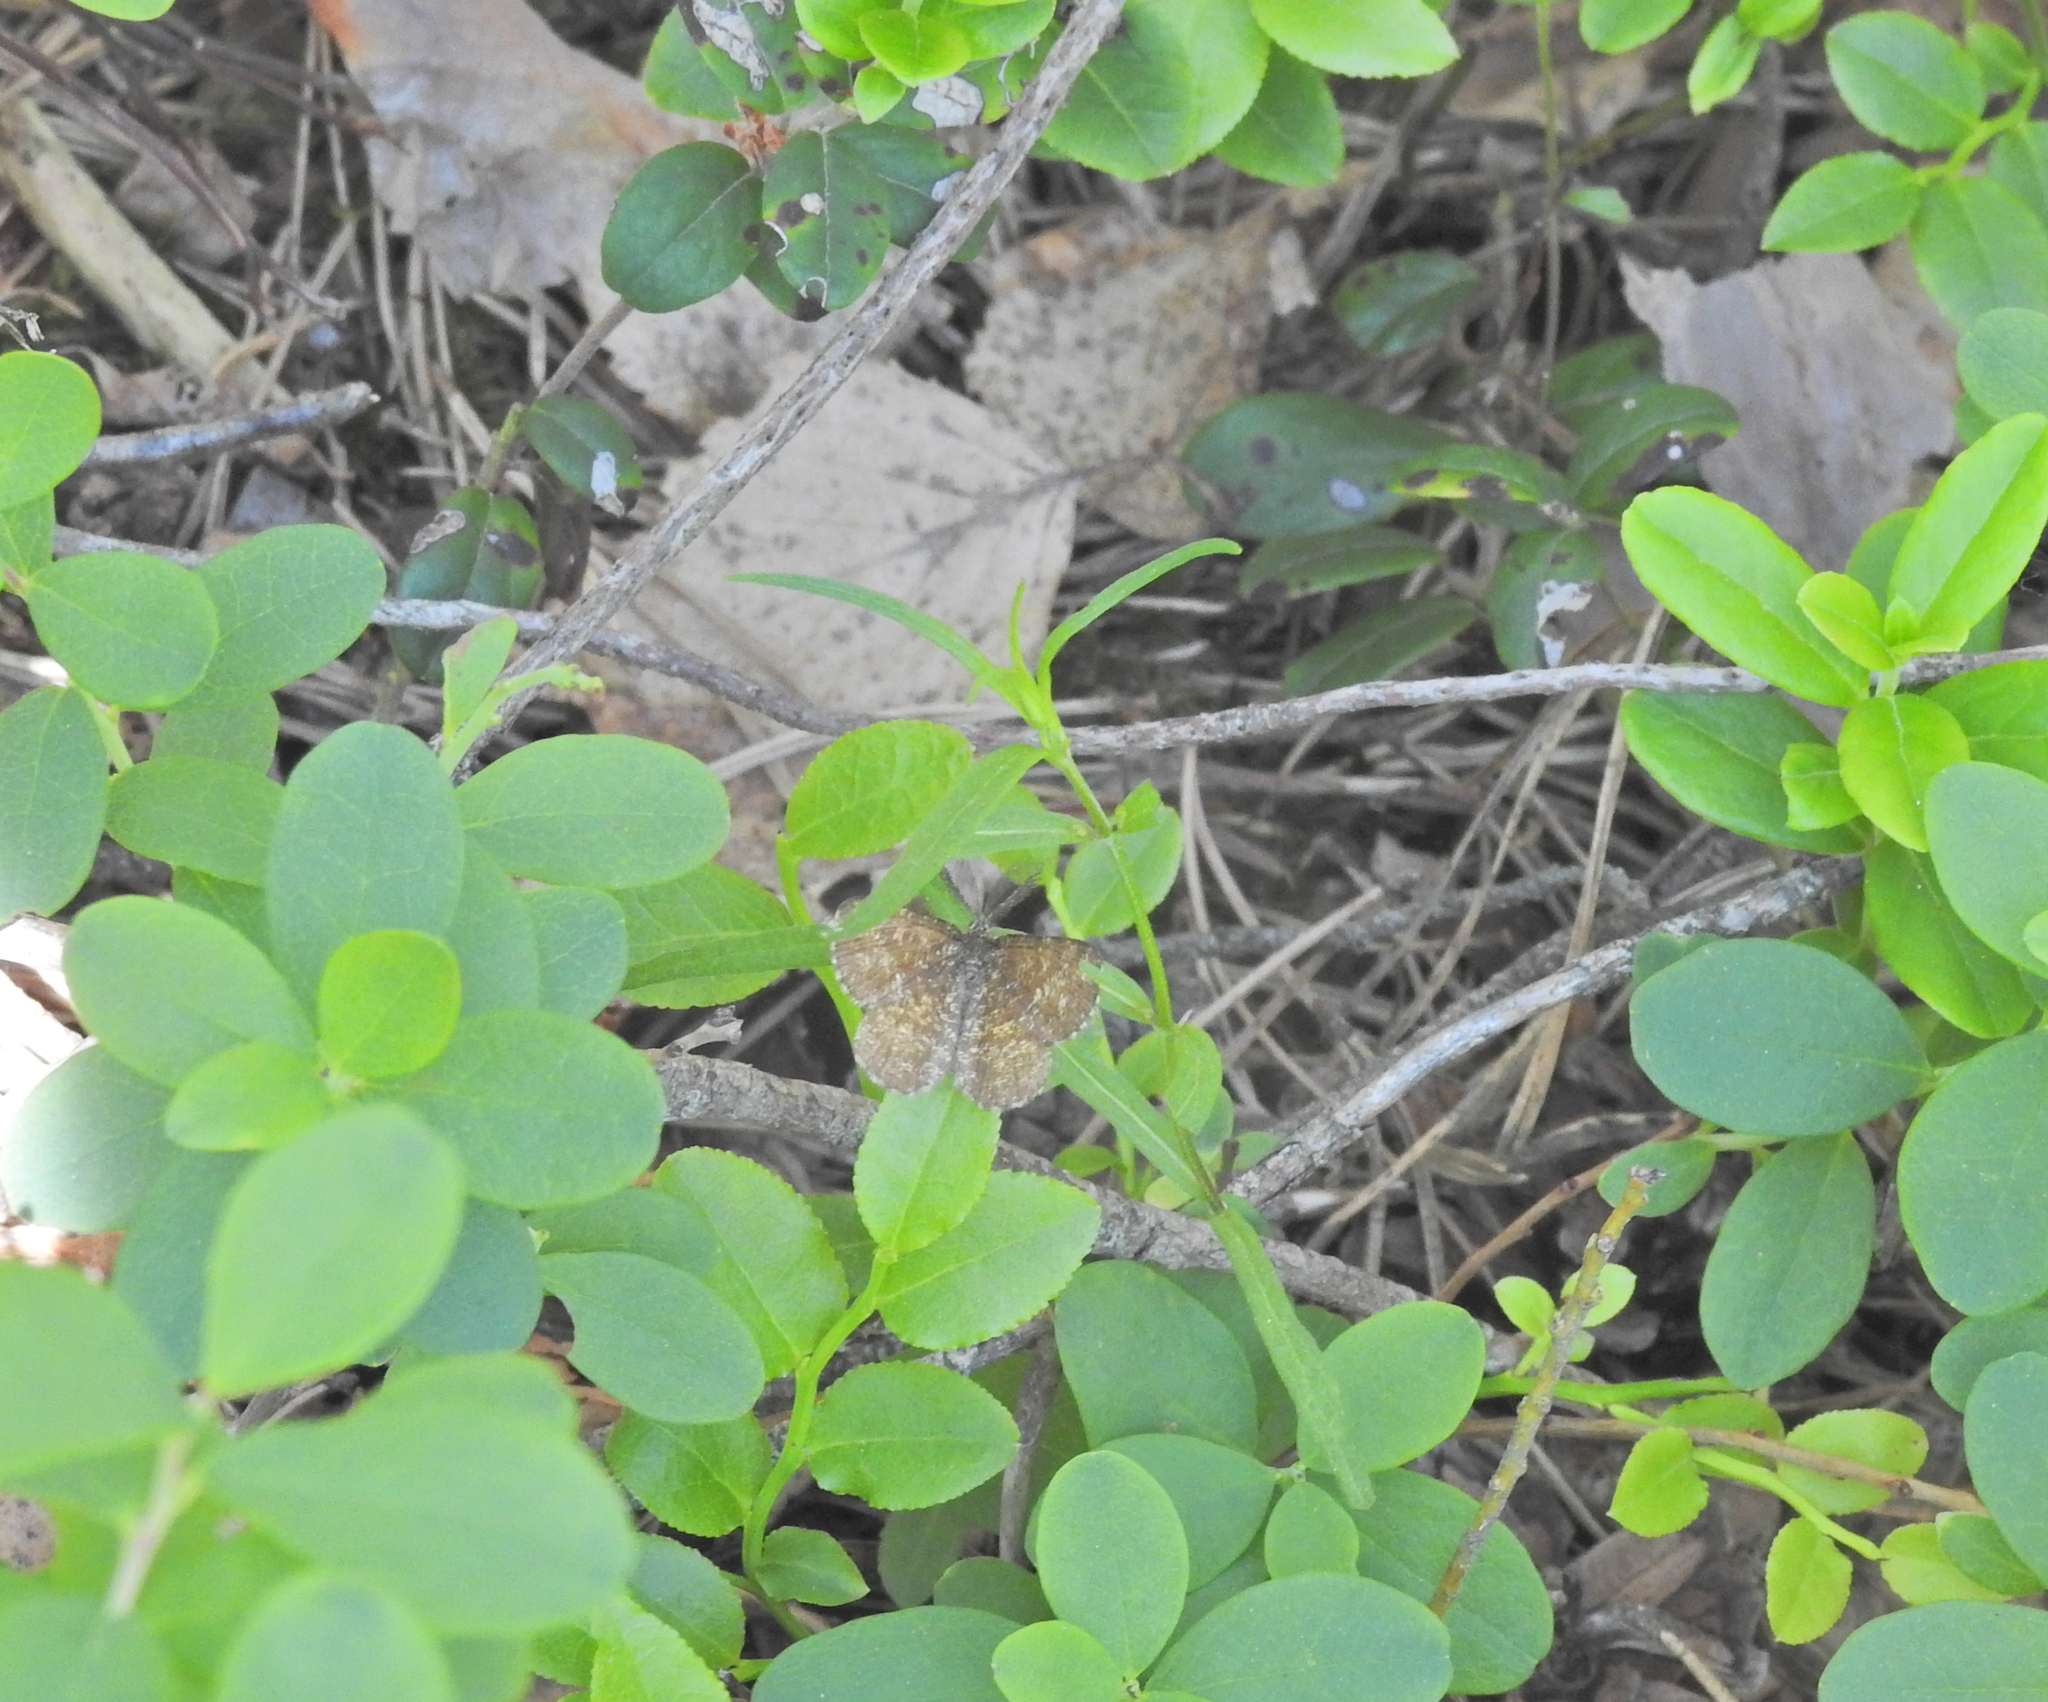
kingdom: Animalia
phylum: Arthropoda
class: Insecta
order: Lepidoptera
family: Geometridae
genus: Ematurga
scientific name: Ematurga atomaria
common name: Common heath
